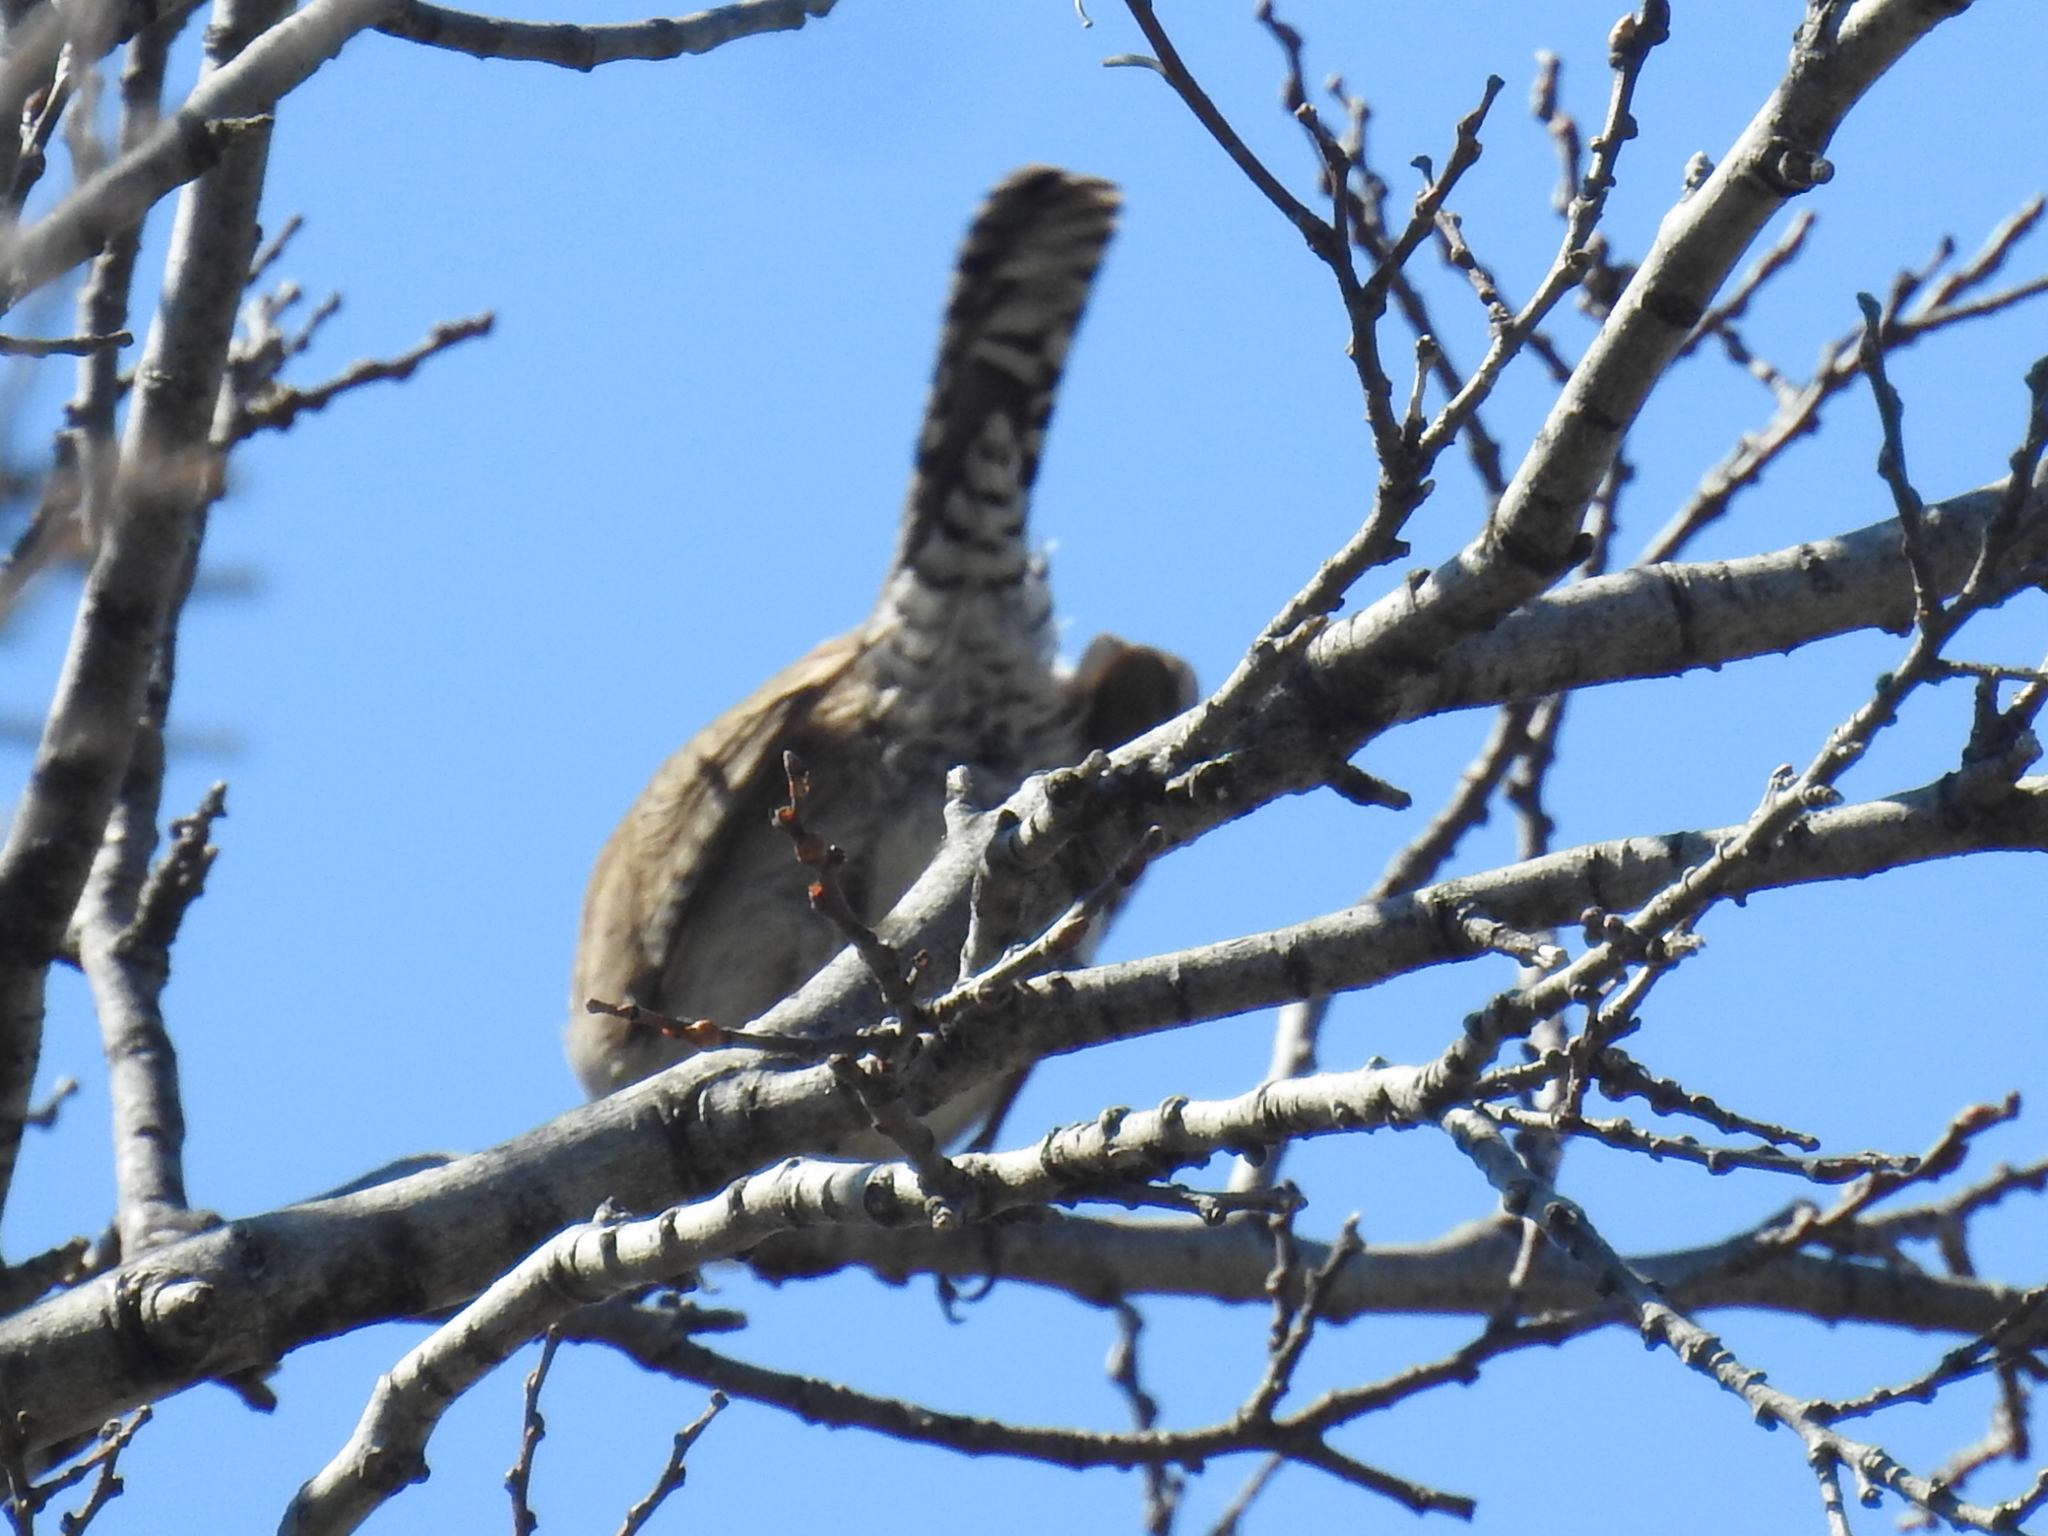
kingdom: Animalia
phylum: Chordata
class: Aves
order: Passeriformes
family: Troglodytidae
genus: Thryomanes
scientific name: Thryomanes bewickii
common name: Bewick's wren
